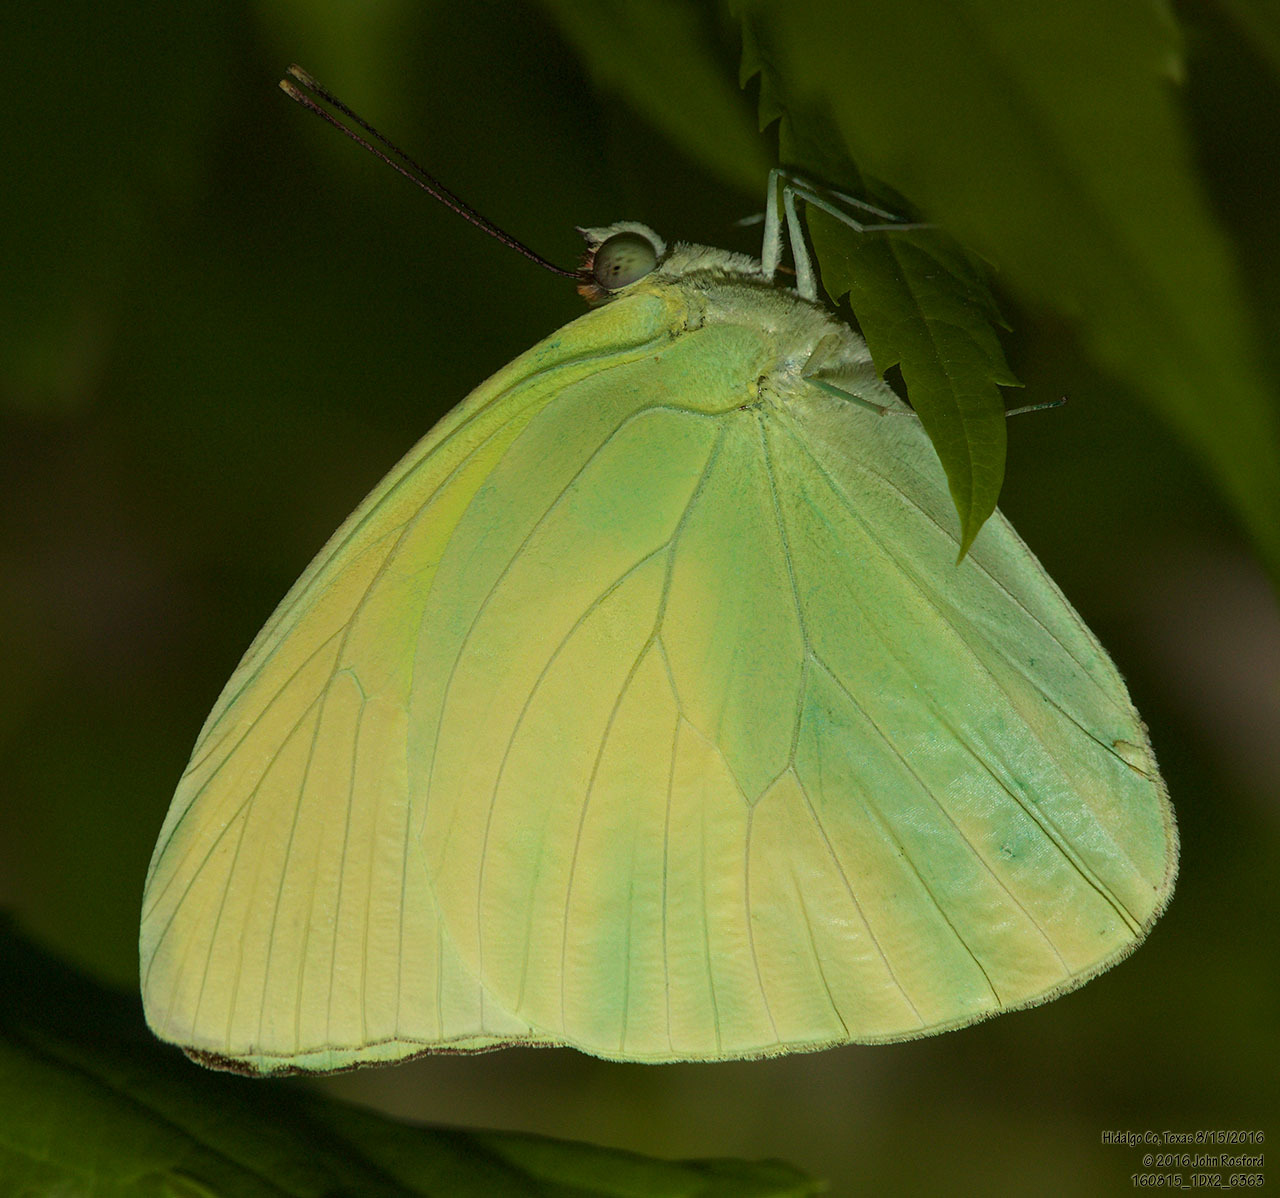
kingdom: Animalia
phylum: Arthropoda
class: Insecta
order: Lepidoptera
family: Pieridae
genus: Aphrissa
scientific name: Aphrissa statira
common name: Statira sulphur
